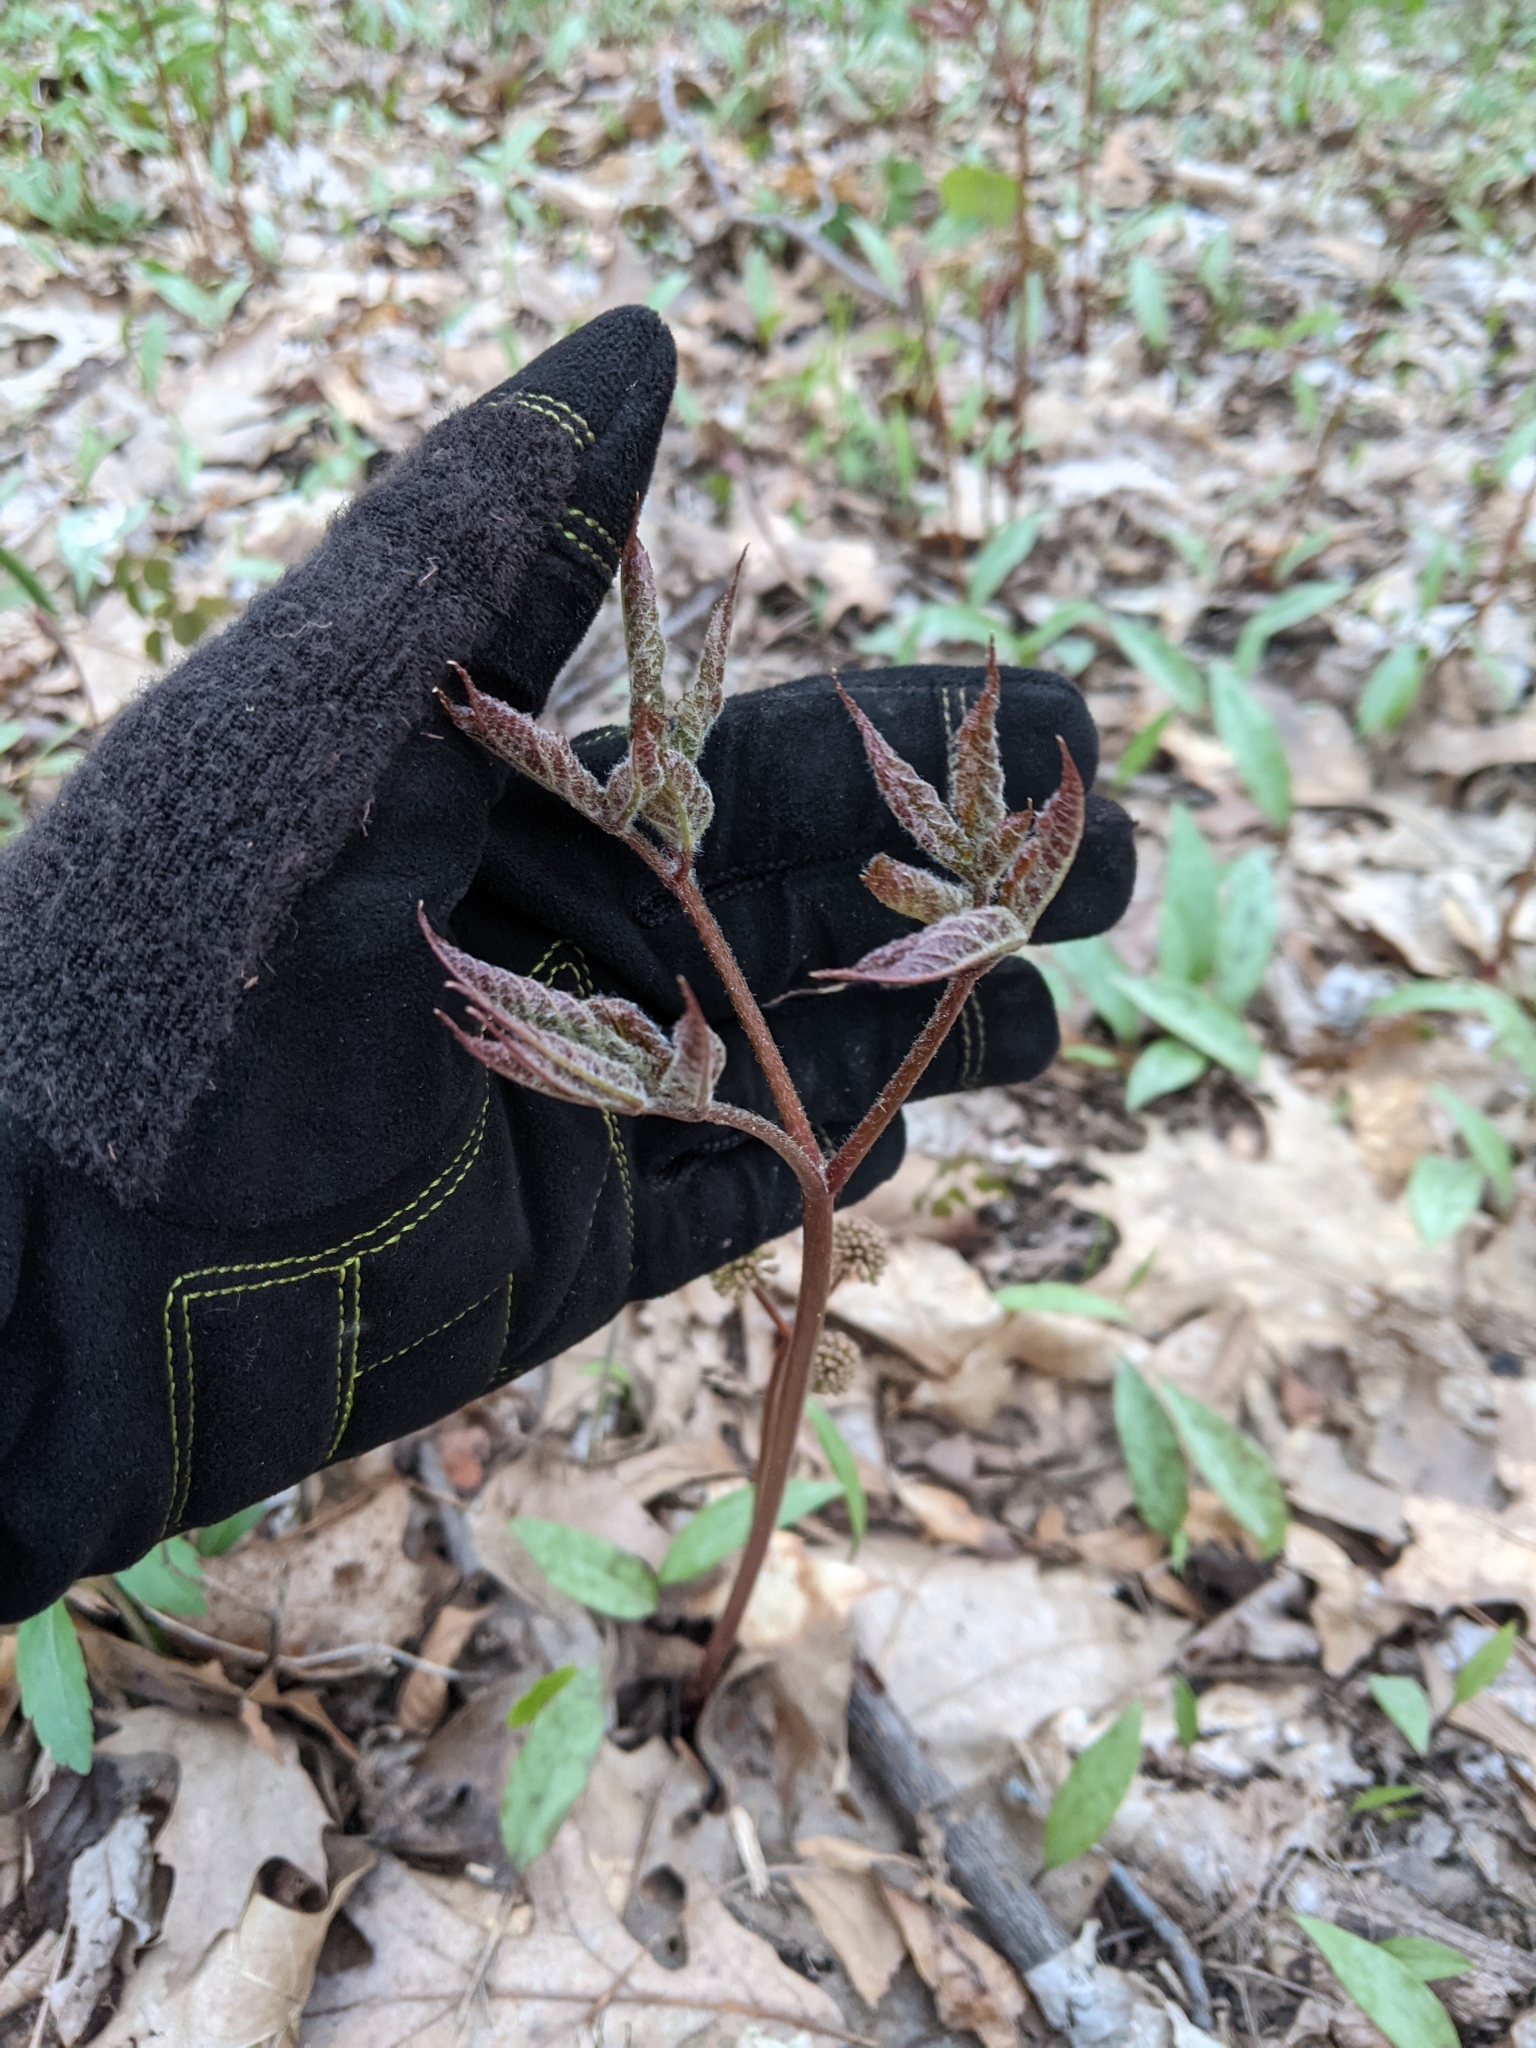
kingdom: Plantae
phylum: Tracheophyta
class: Magnoliopsida
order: Apiales
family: Araliaceae
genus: Aralia
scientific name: Aralia nudicaulis
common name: Wild sarsaparilla
